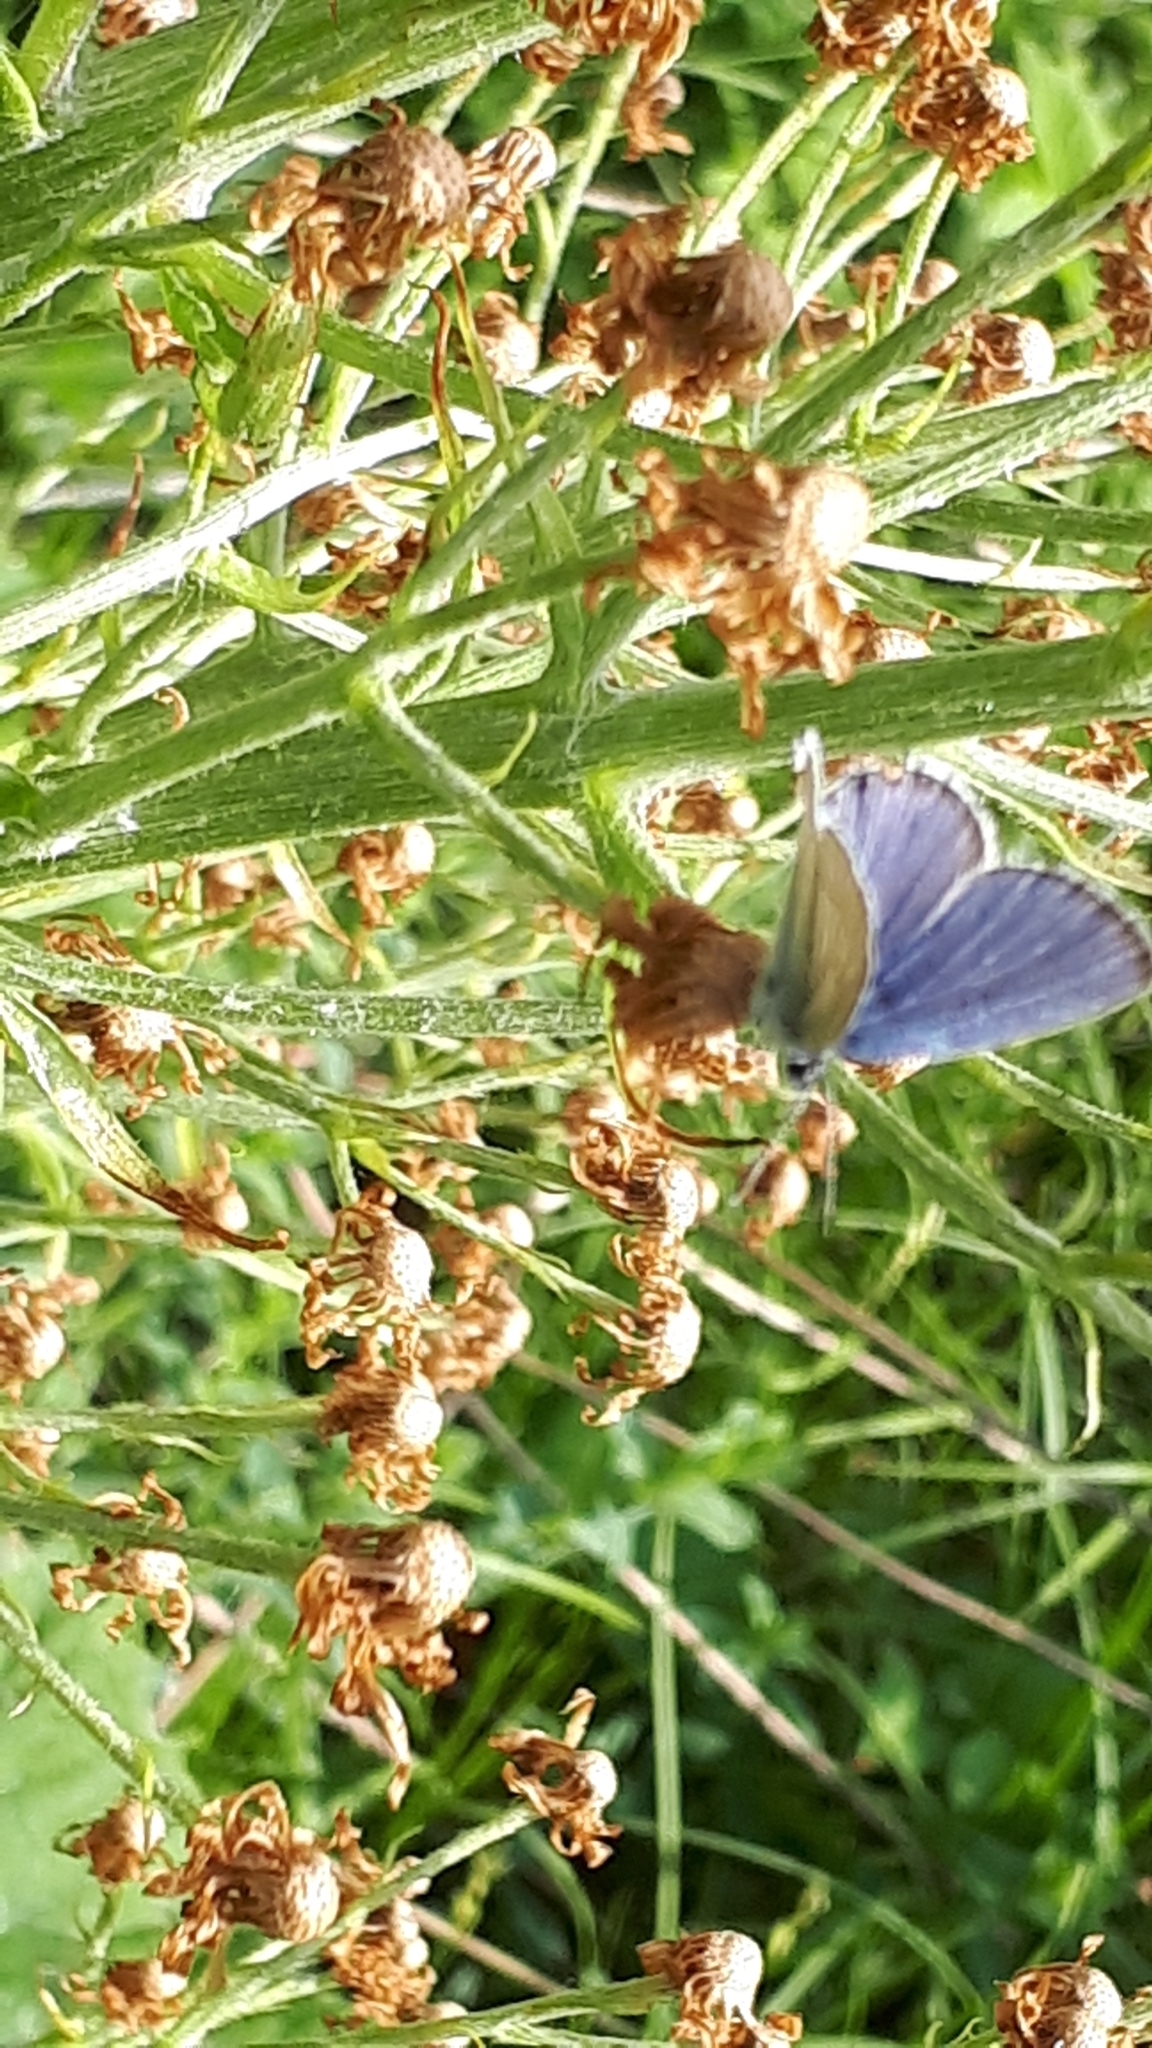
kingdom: Animalia
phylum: Arthropoda
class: Insecta
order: Lepidoptera
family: Lycaenidae
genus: Elkalyce
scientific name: Elkalyce argiades
